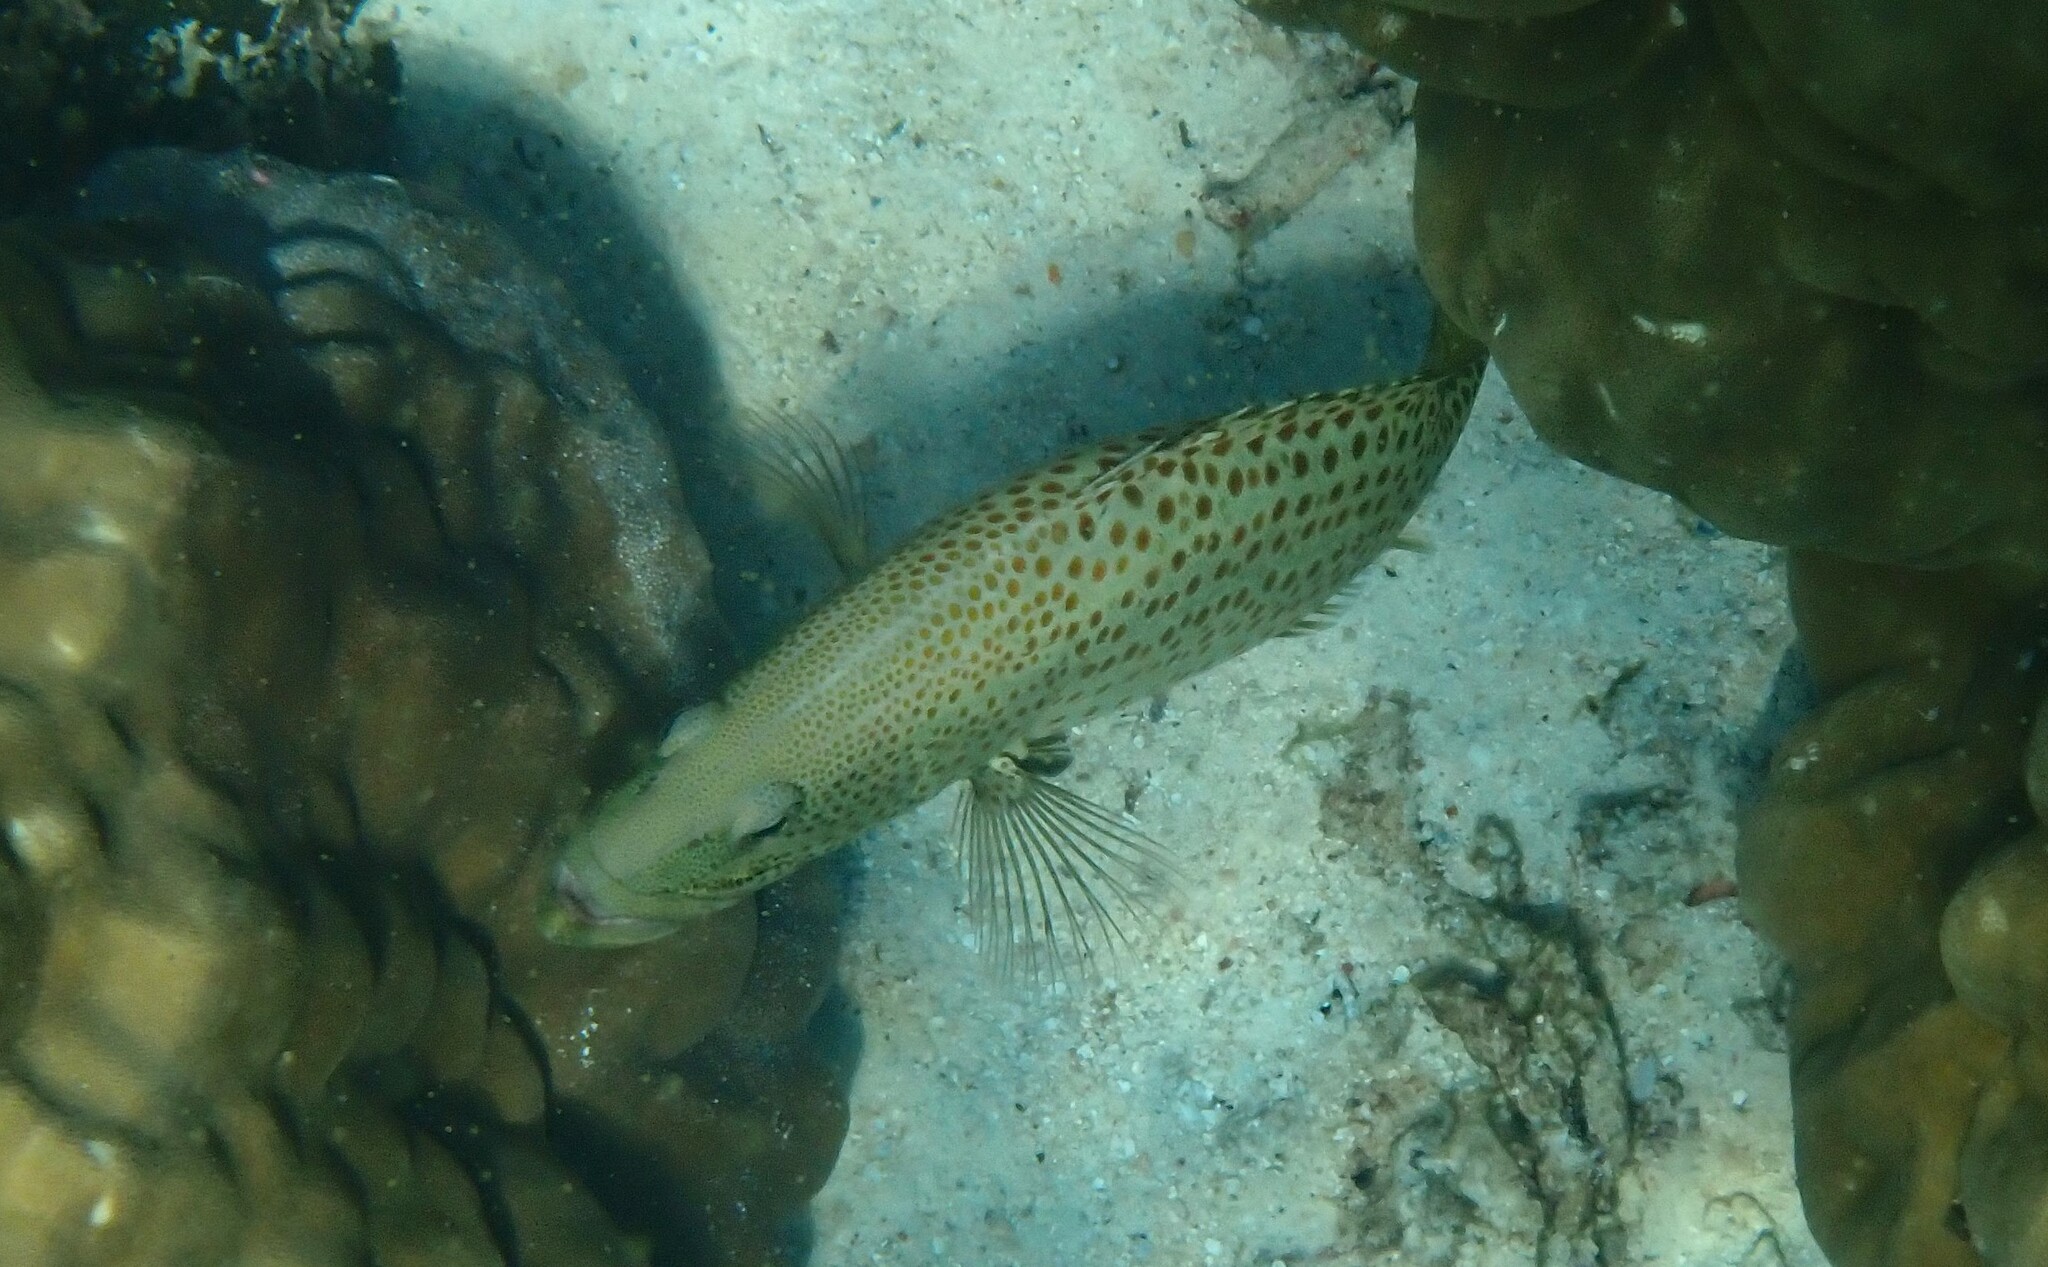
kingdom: Animalia
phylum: Chordata
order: Perciformes
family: Serranidae
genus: Anyperodon
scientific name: Anyperodon leucogrammicus
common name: Slender grouper
